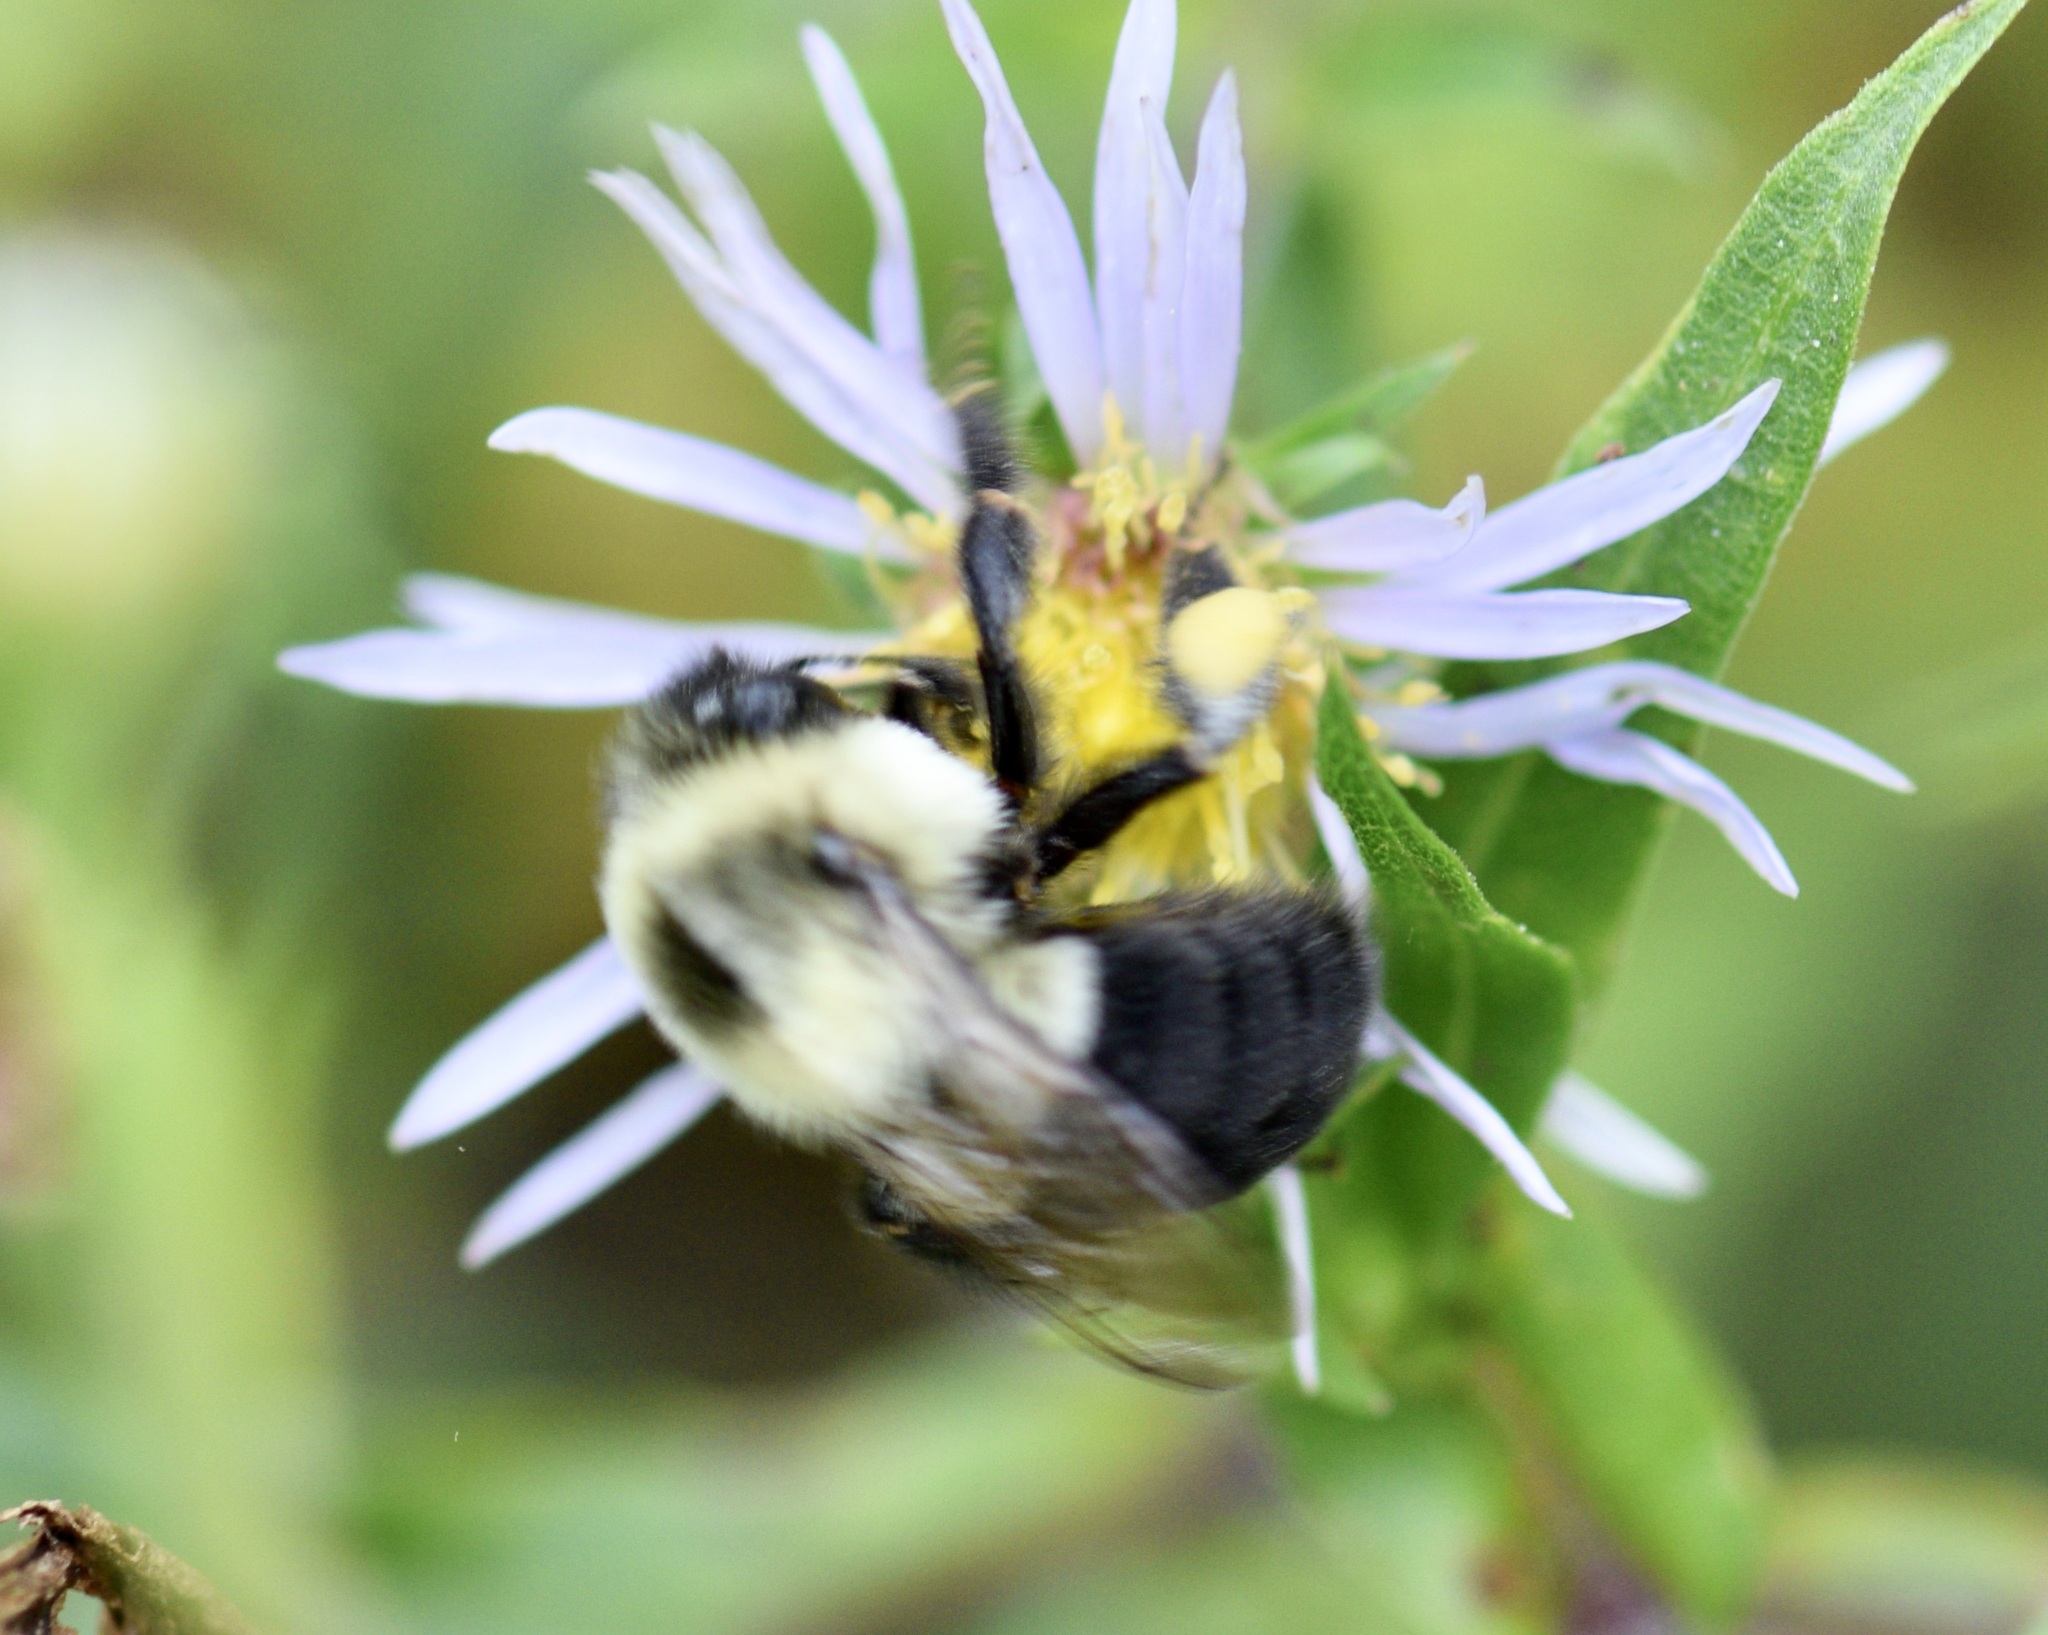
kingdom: Animalia
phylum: Arthropoda
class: Insecta
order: Hymenoptera
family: Apidae
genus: Bombus
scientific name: Bombus impatiens
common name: Common eastern bumble bee
